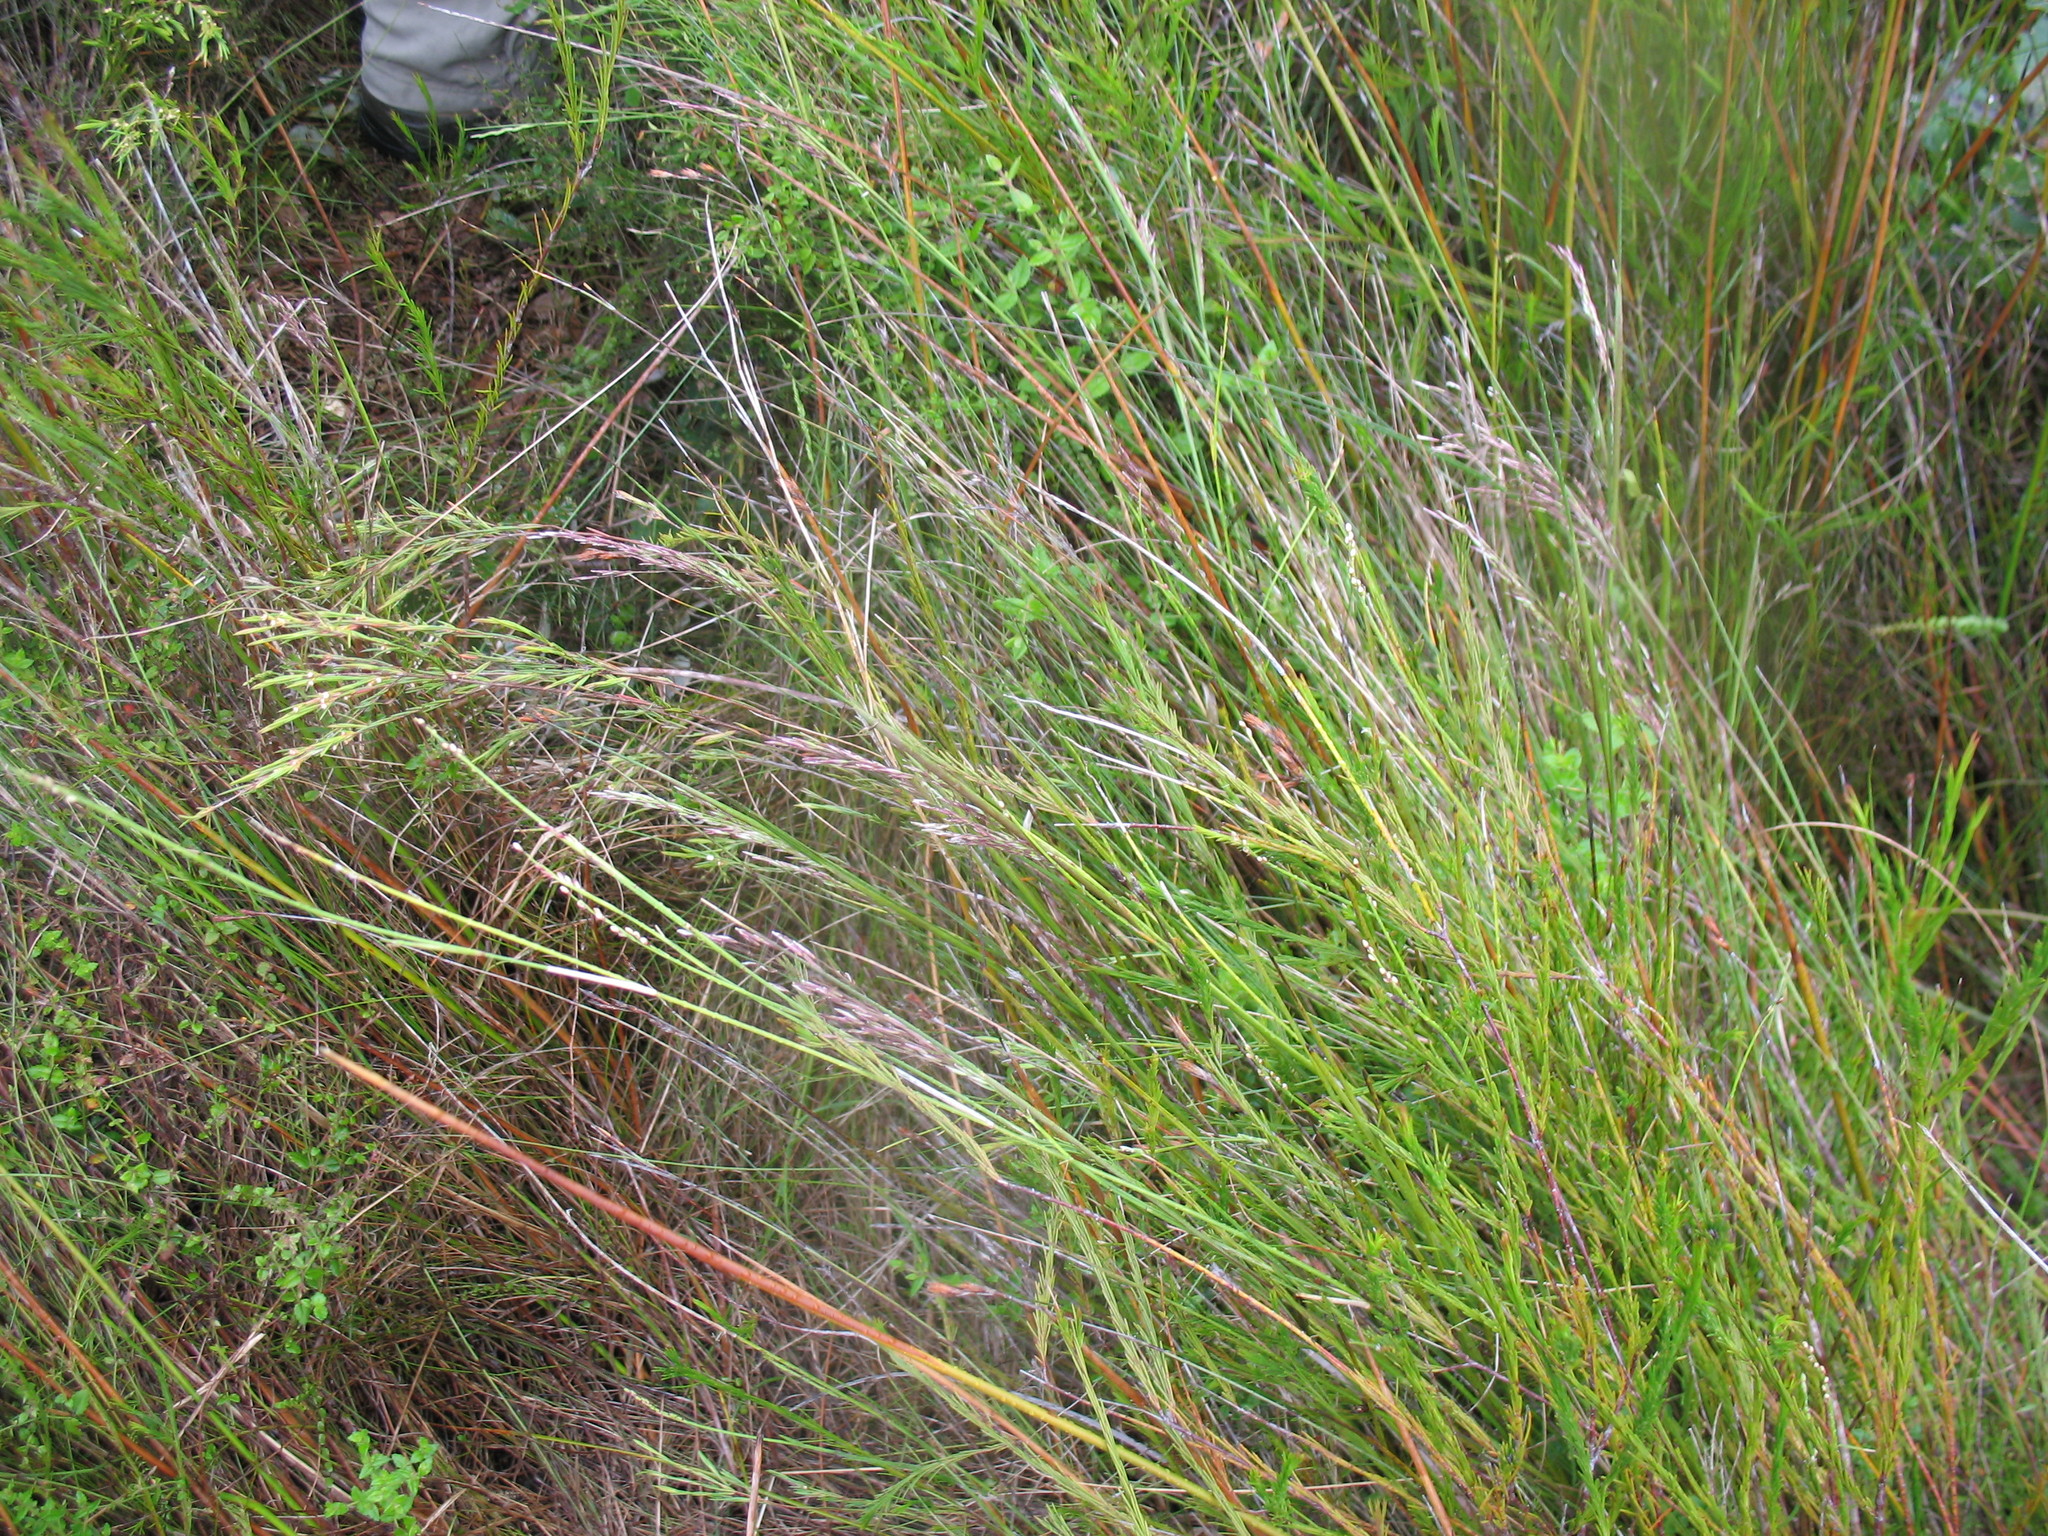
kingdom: Plantae
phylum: Tracheophyta
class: Liliopsida
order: Poales
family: Poaceae
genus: Plinthanthesis
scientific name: Plinthanthesis paradoxa
